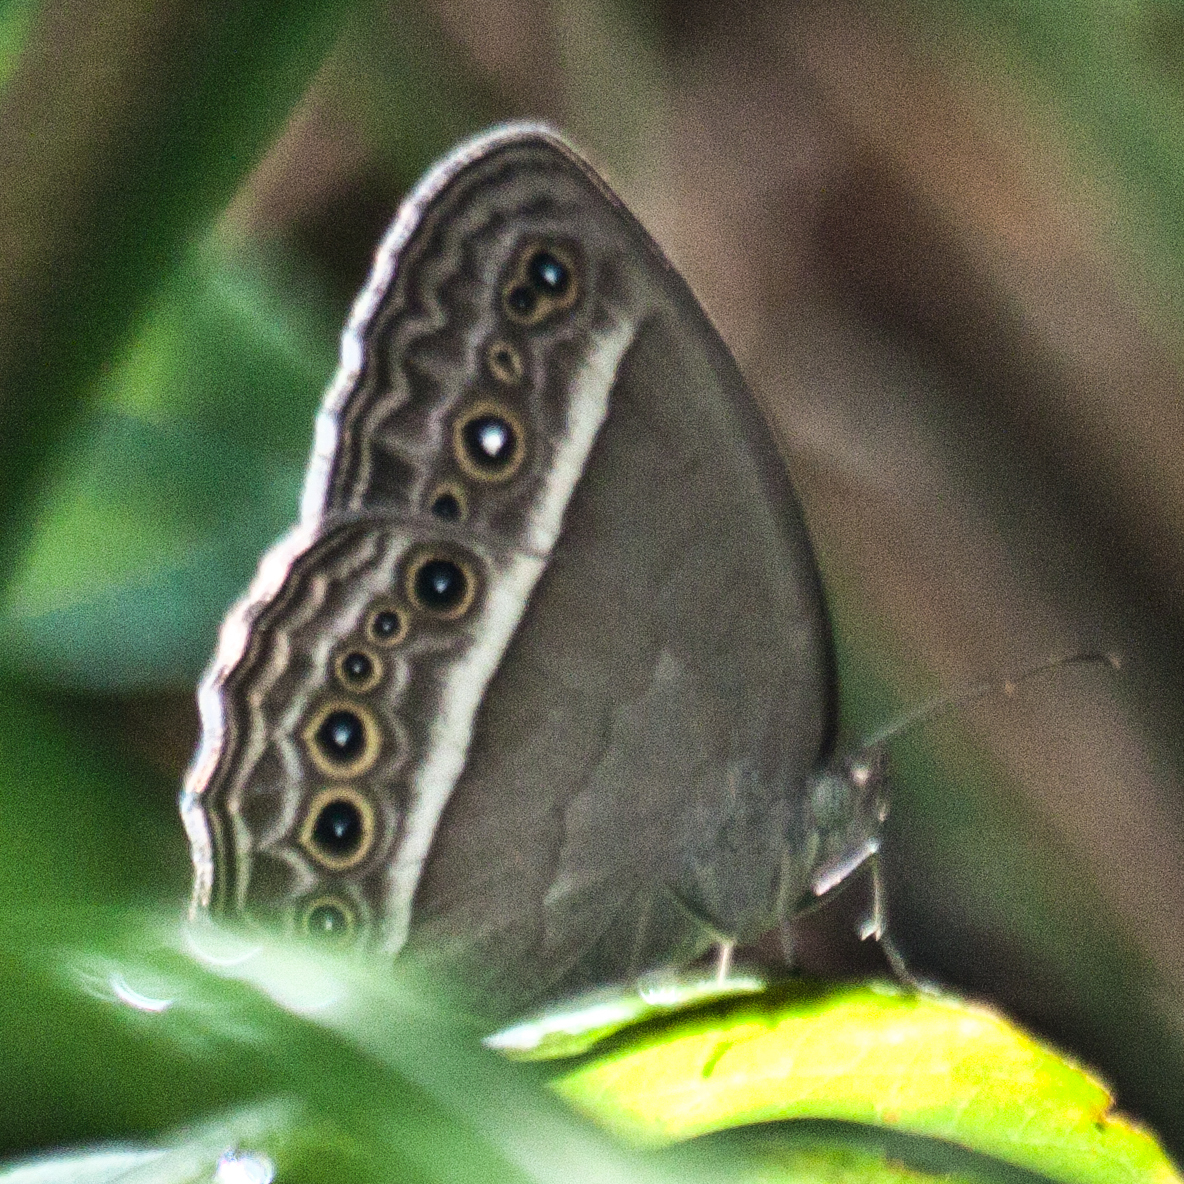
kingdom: Animalia
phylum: Arthropoda
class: Insecta
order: Lepidoptera
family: Nymphalidae
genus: Mycalesis
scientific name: Mycalesis perseoides
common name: Burmese bushbrown
